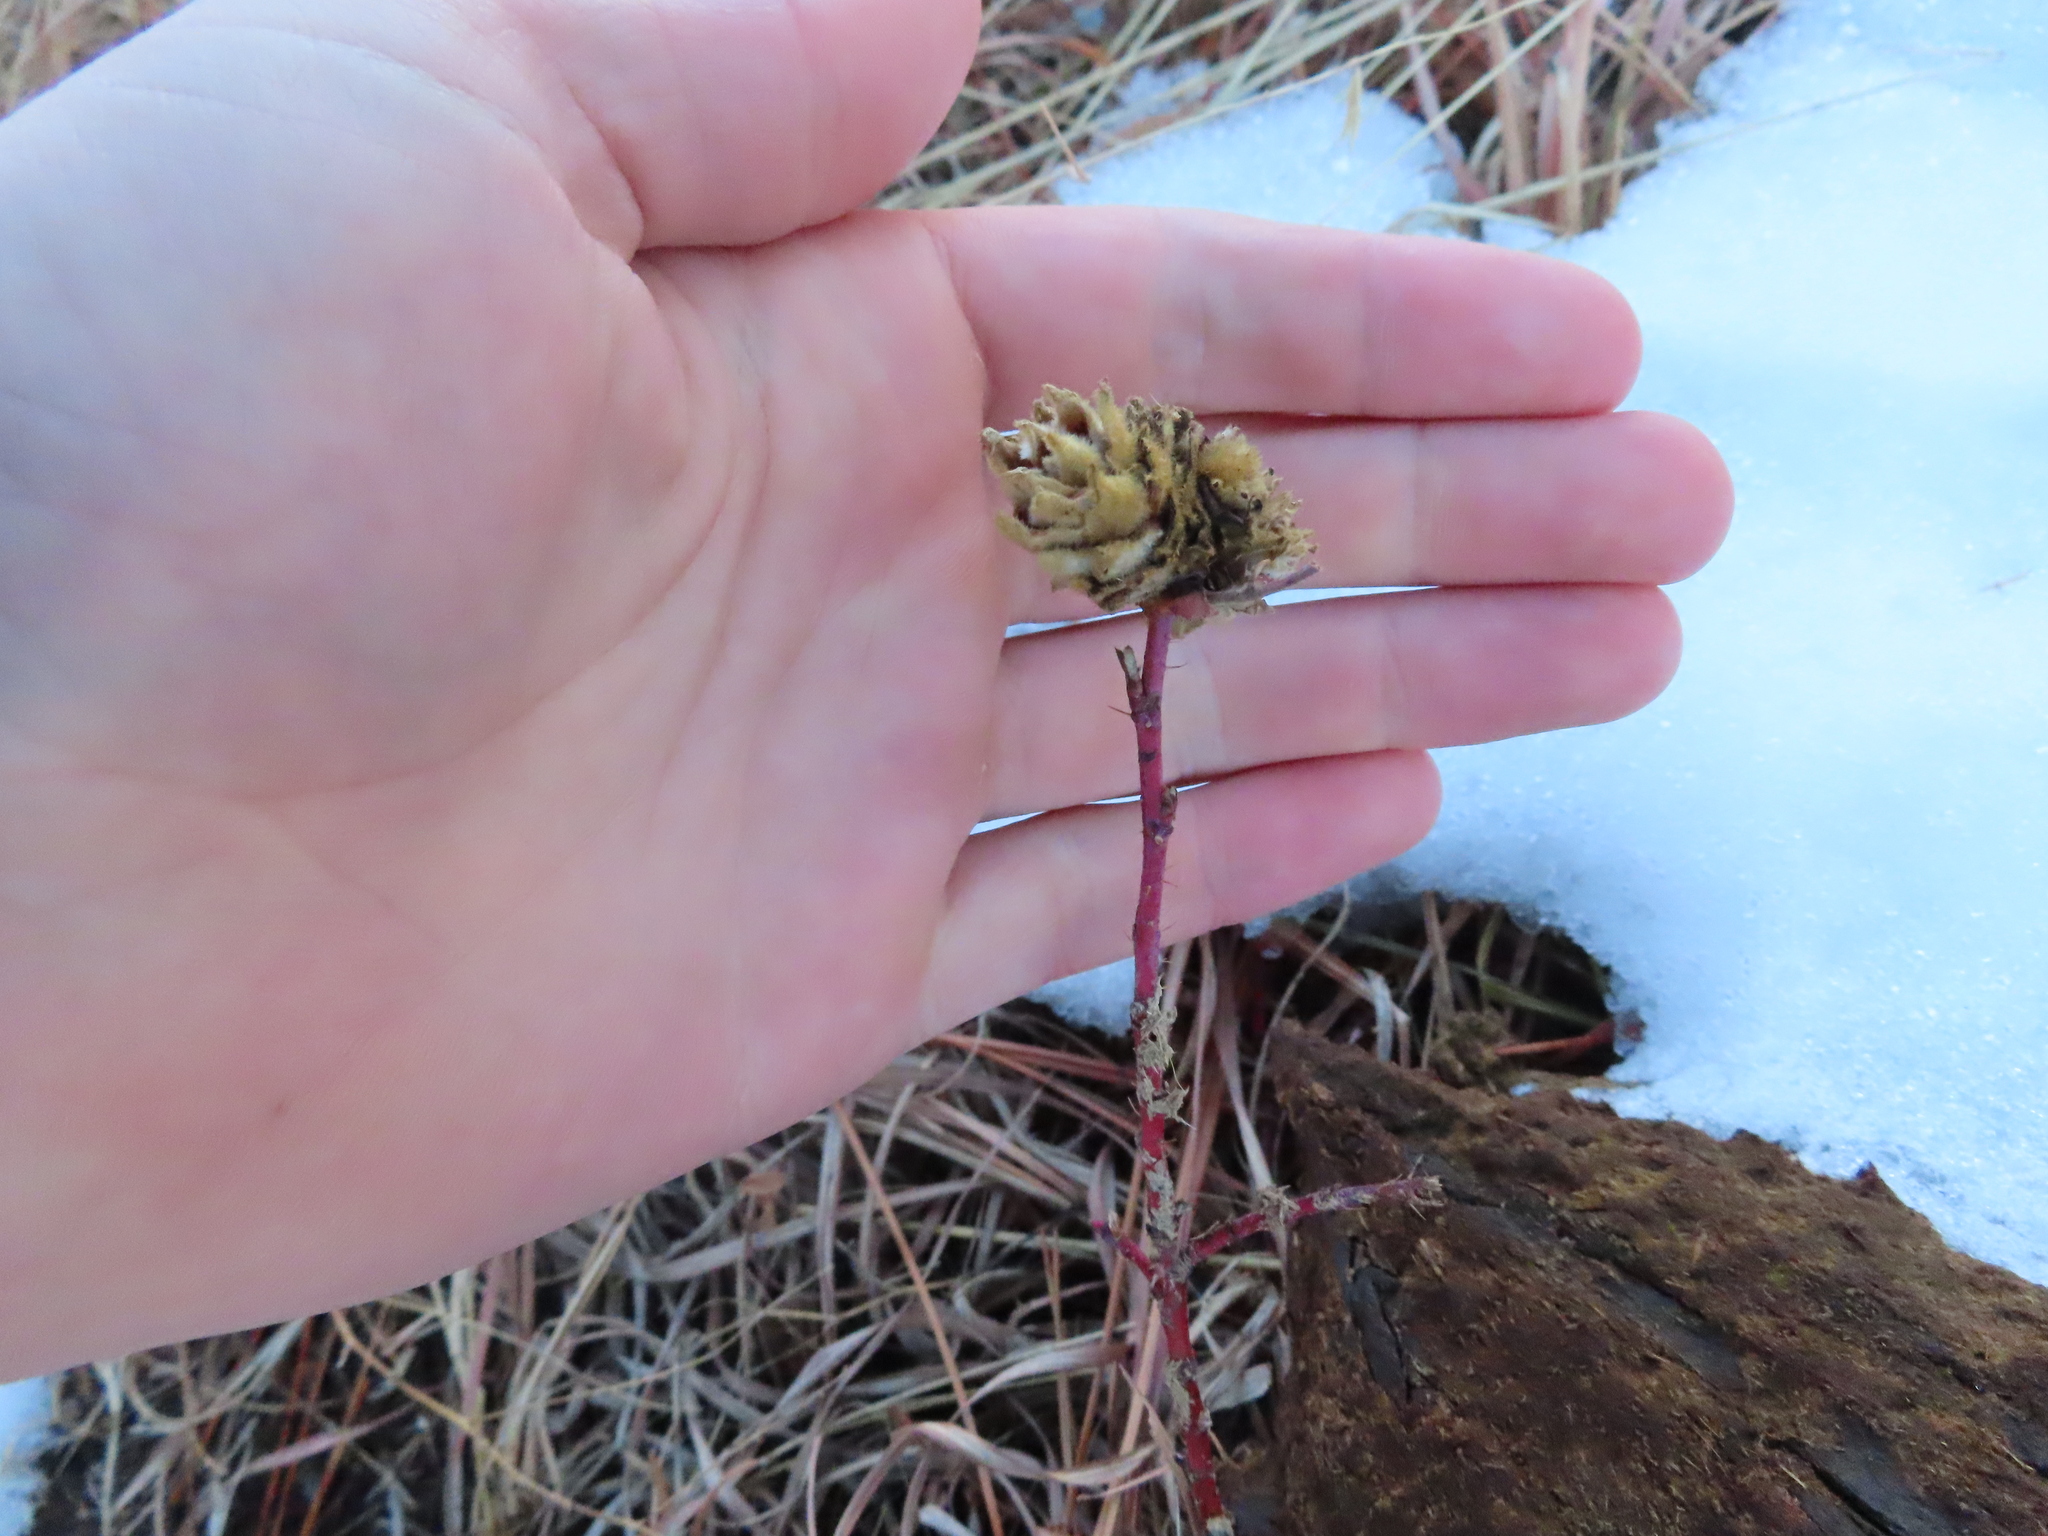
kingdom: Animalia
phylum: Arthropoda
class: Insecta
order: Diptera
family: Cecidomyiidae
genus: Rabdophaga
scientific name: Rabdophaga rosacea
